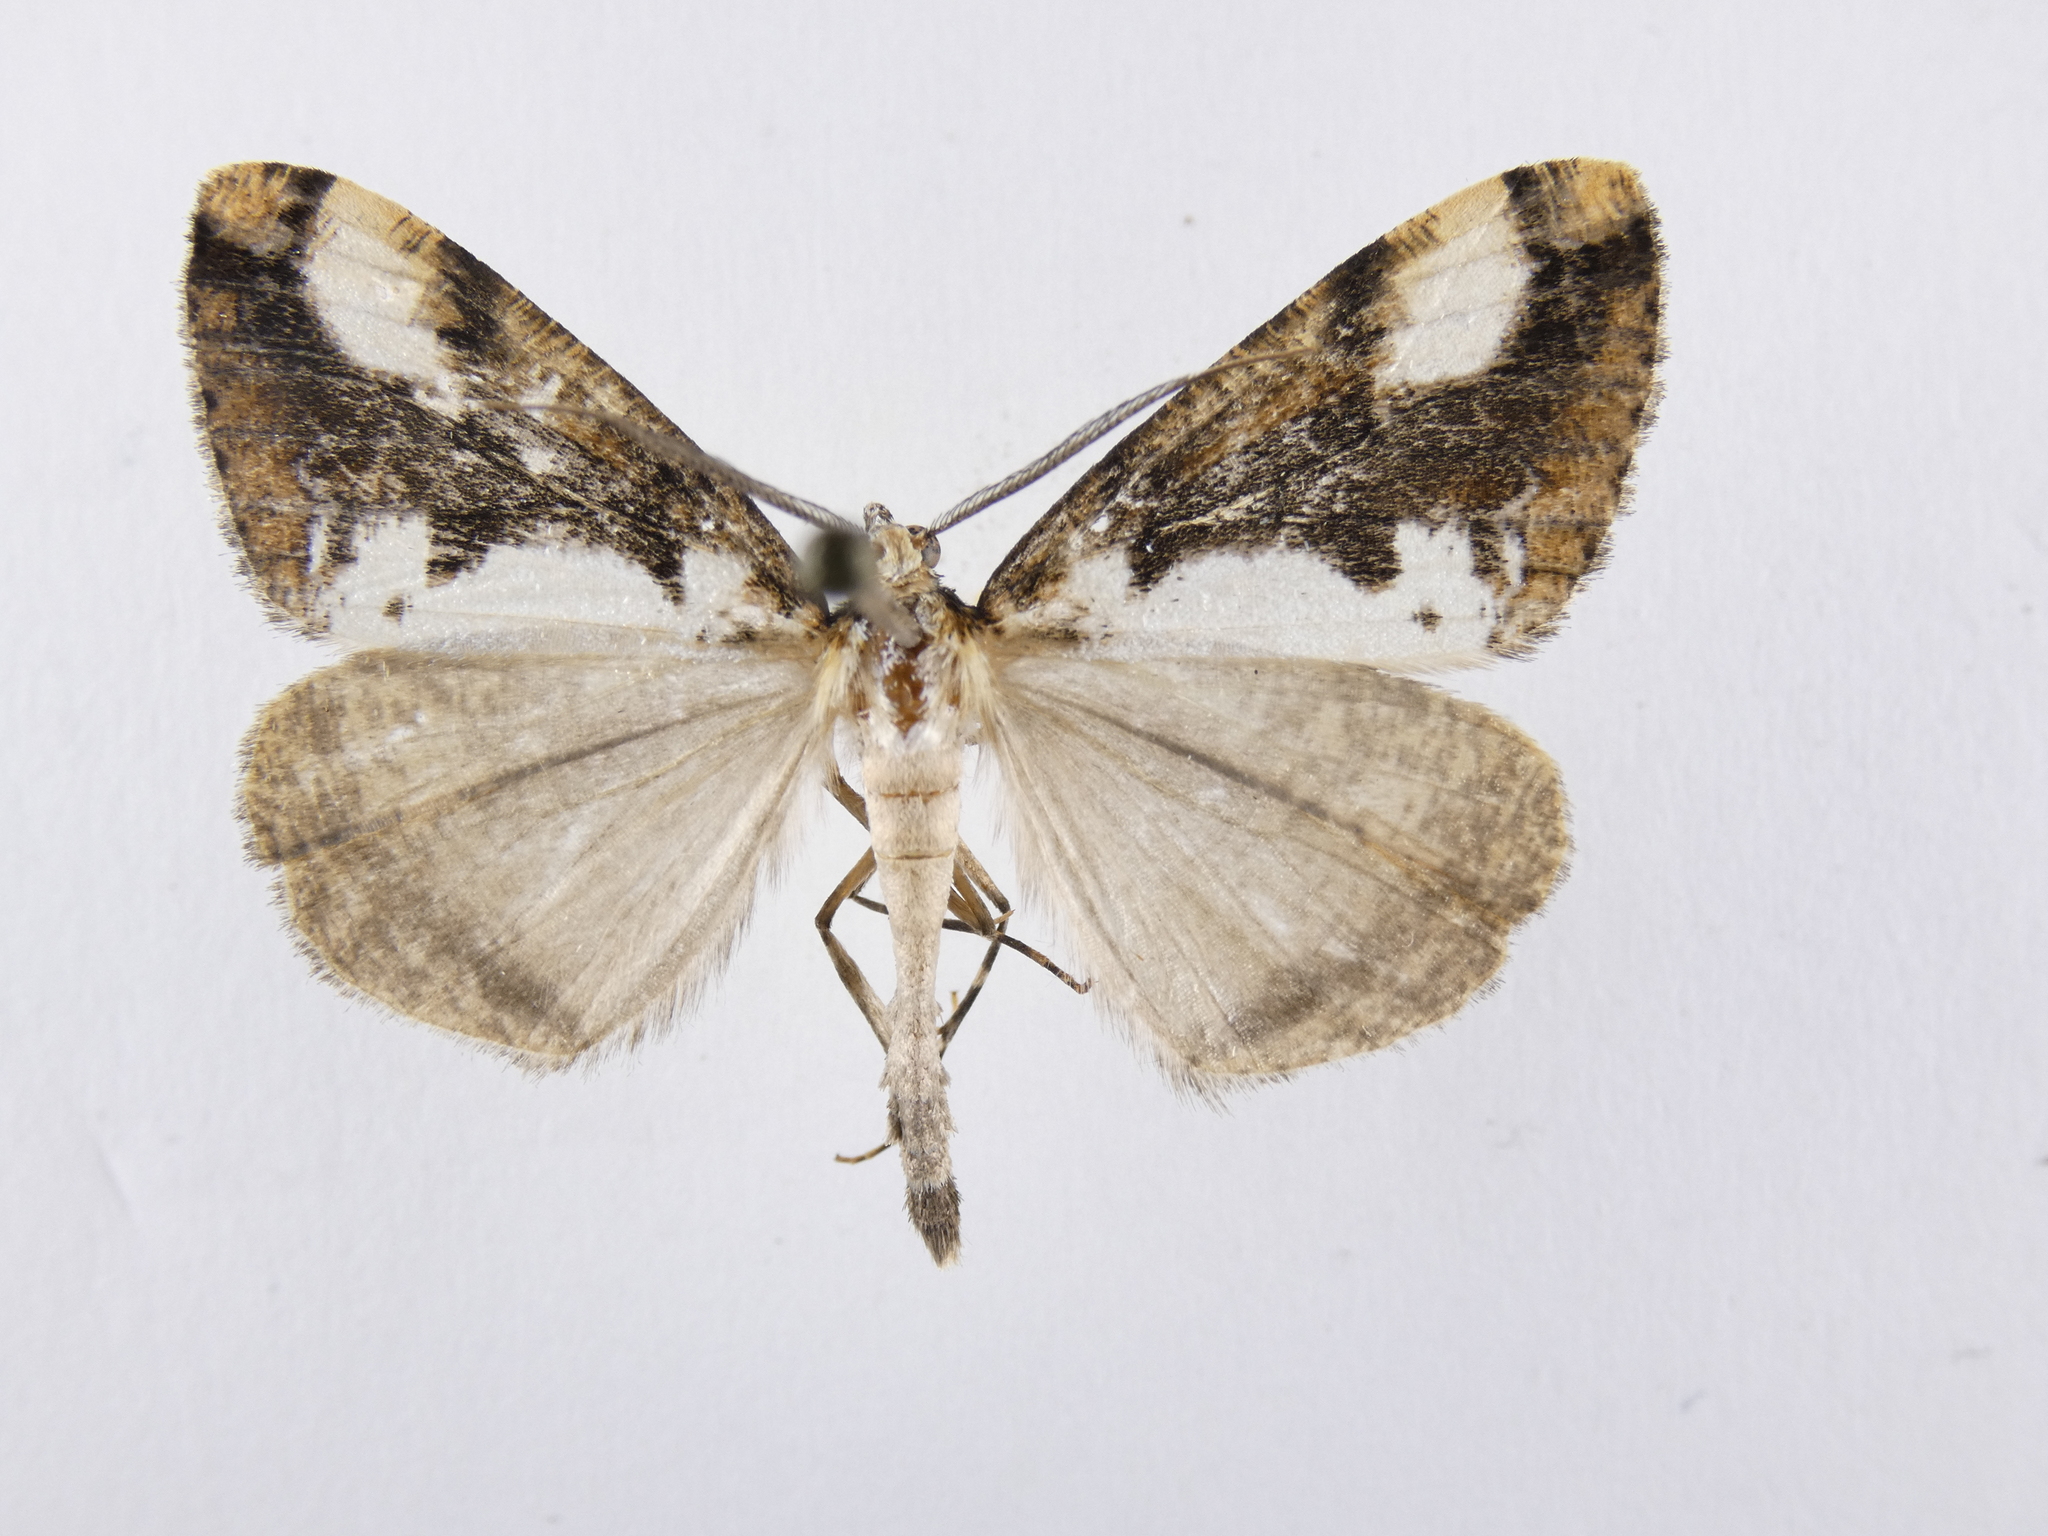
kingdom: Animalia
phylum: Arthropoda
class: Insecta
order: Lepidoptera
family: Geometridae
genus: Pseudocoremia
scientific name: Pseudocoremia leucelaea
